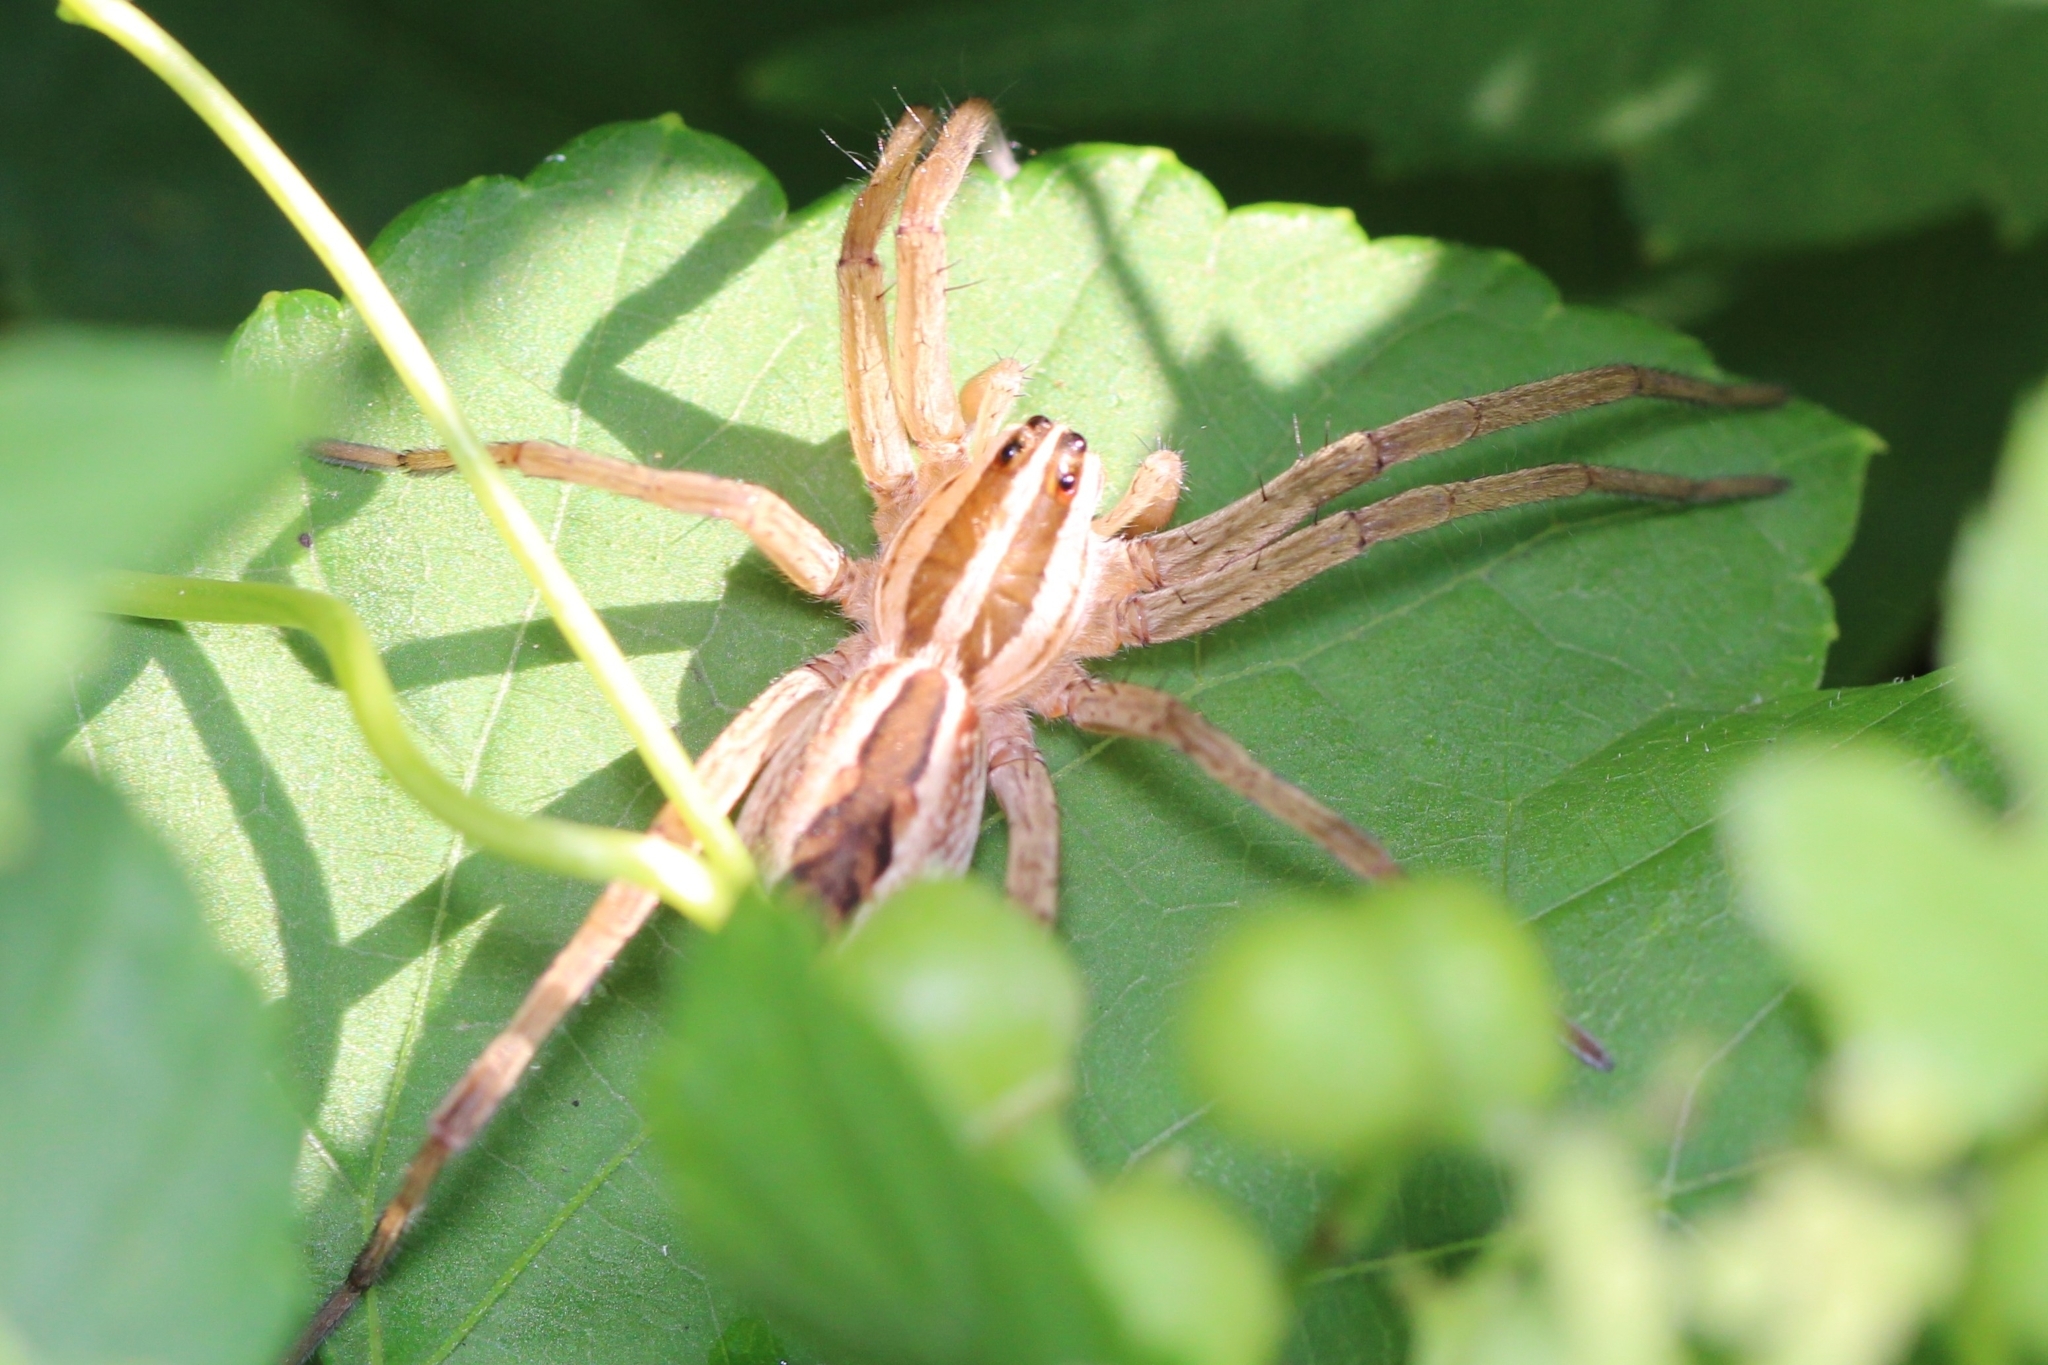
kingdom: Animalia
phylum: Arthropoda
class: Arachnida
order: Araneae
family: Lycosidae
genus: Rabidosa
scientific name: Rabidosa rabida
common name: Rabid wolf spider
